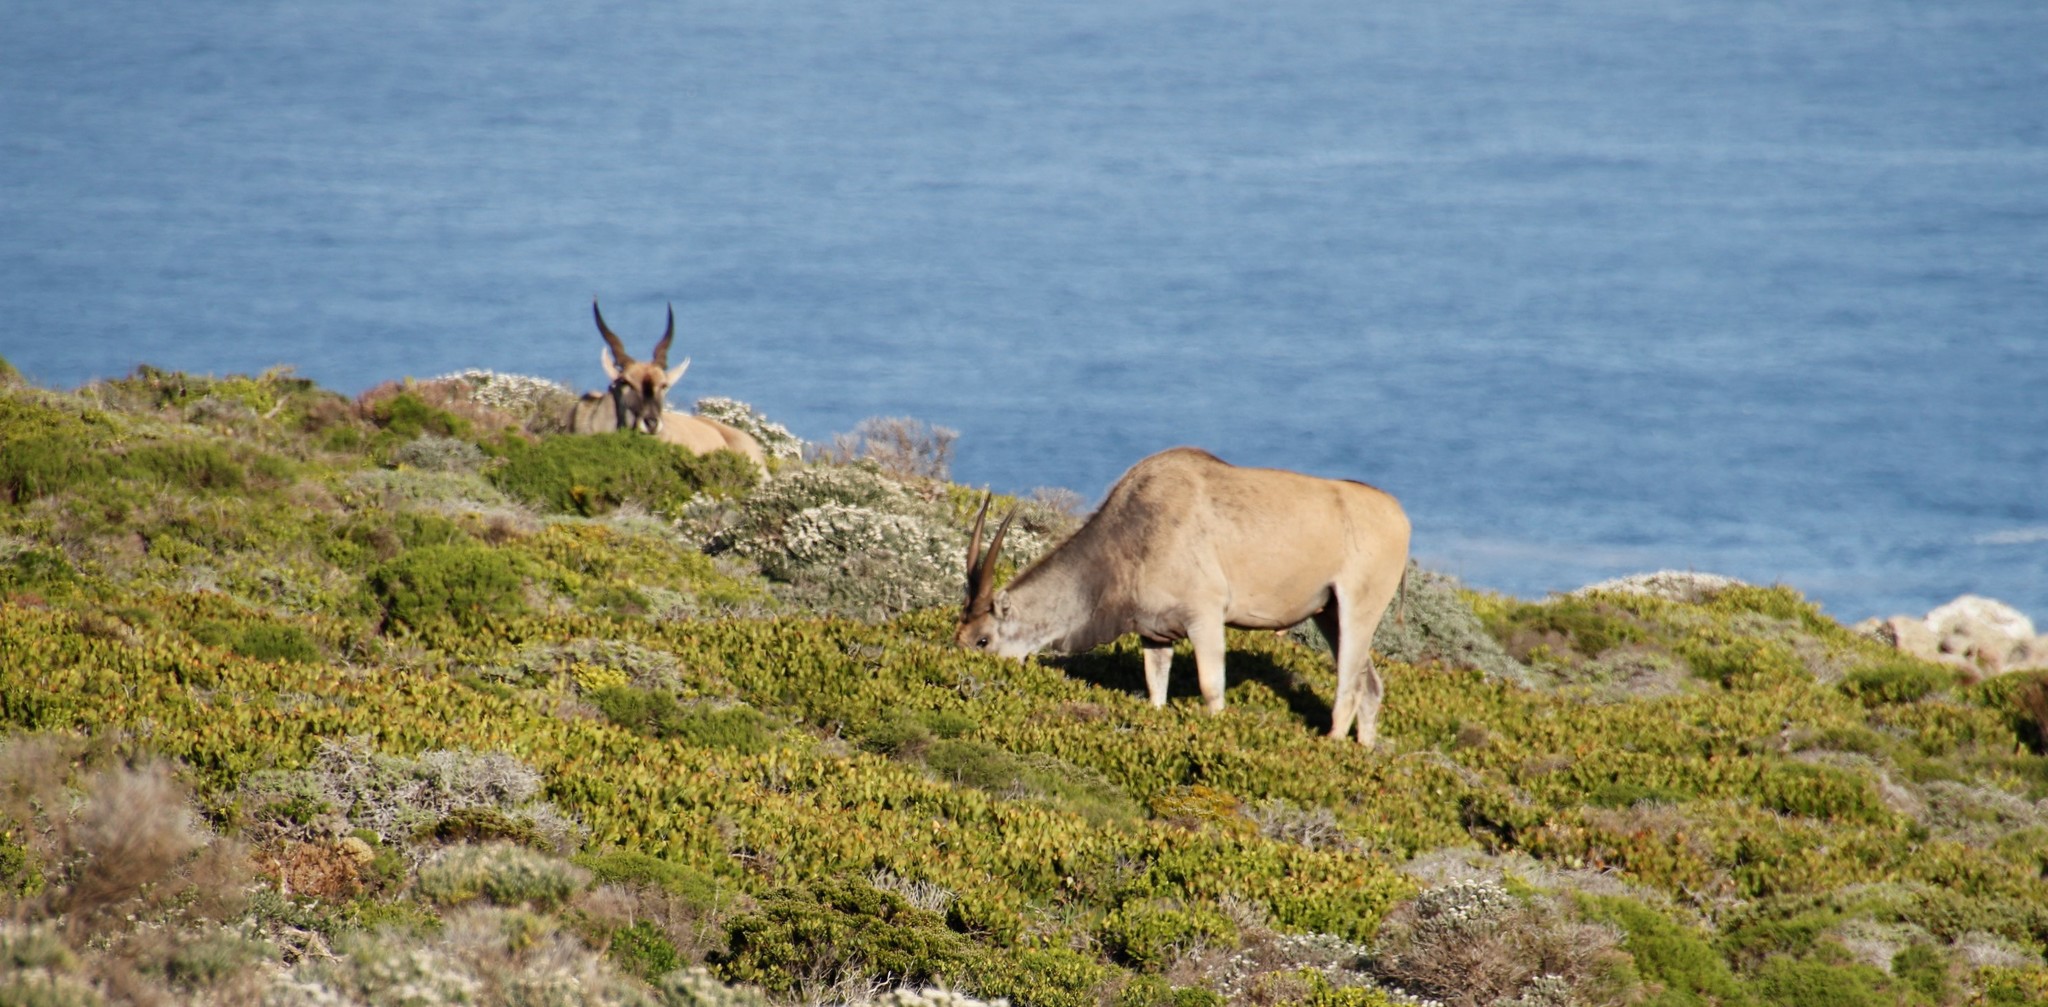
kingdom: Animalia
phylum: Chordata
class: Mammalia
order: Artiodactyla
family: Bovidae
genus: Taurotragus
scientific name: Taurotragus oryx
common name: Common eland
